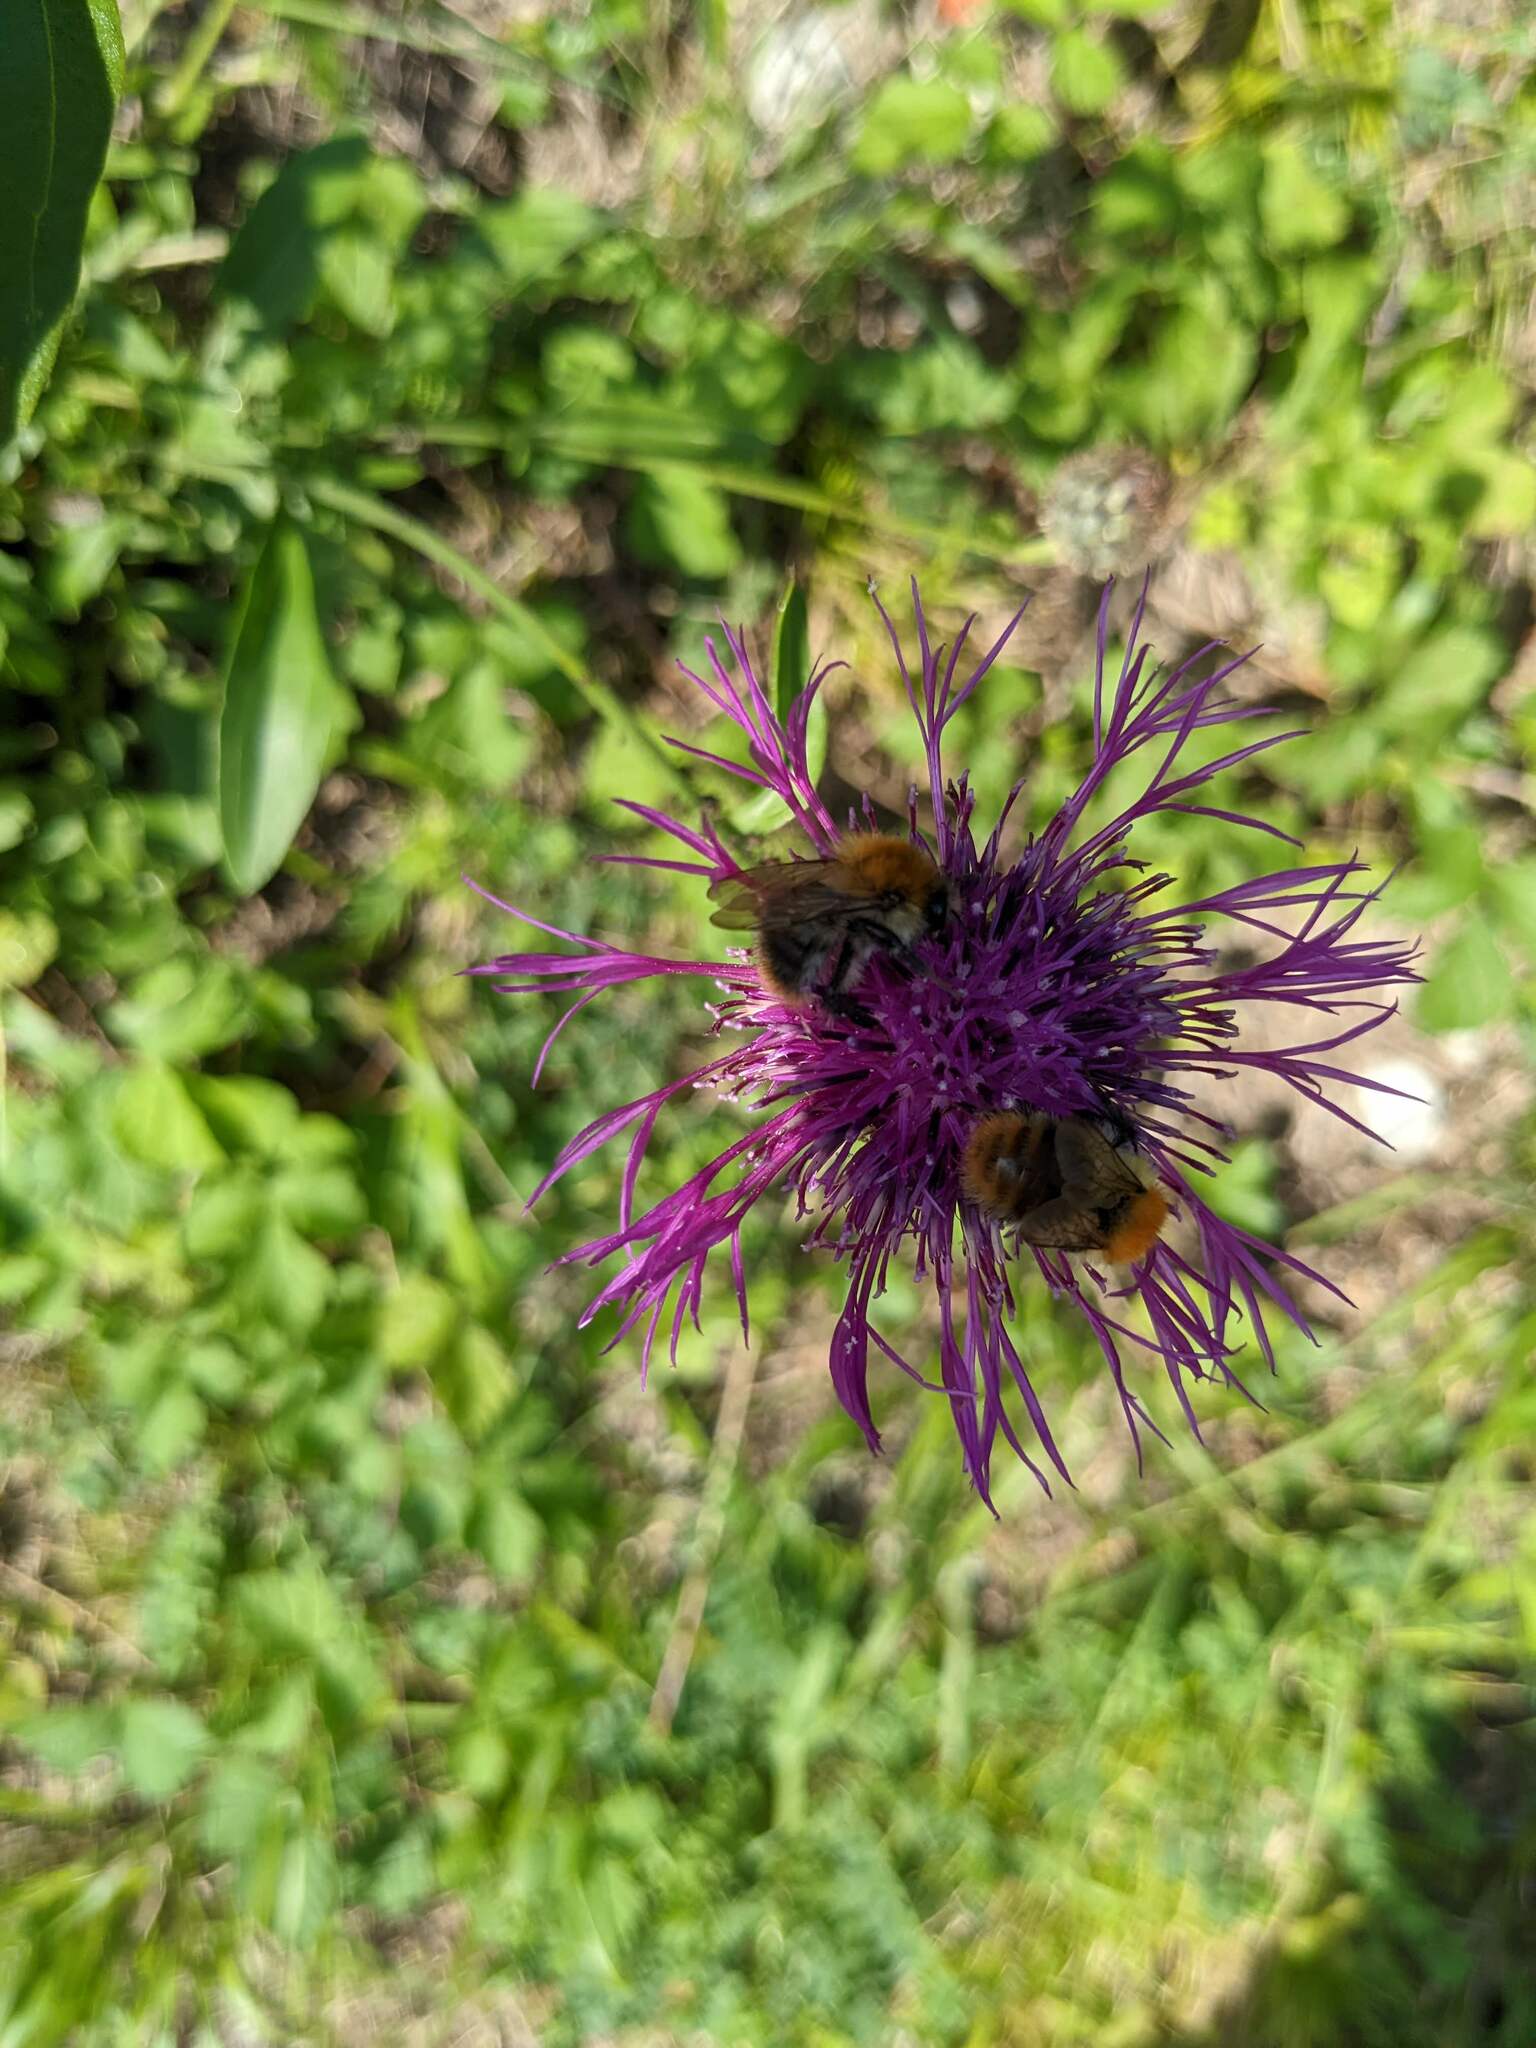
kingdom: Animalia
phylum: Arthropoda
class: Insecta
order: Hymenoptera
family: Apidae
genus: Bombus
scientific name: Bombus pascuorum
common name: Common carder bee
